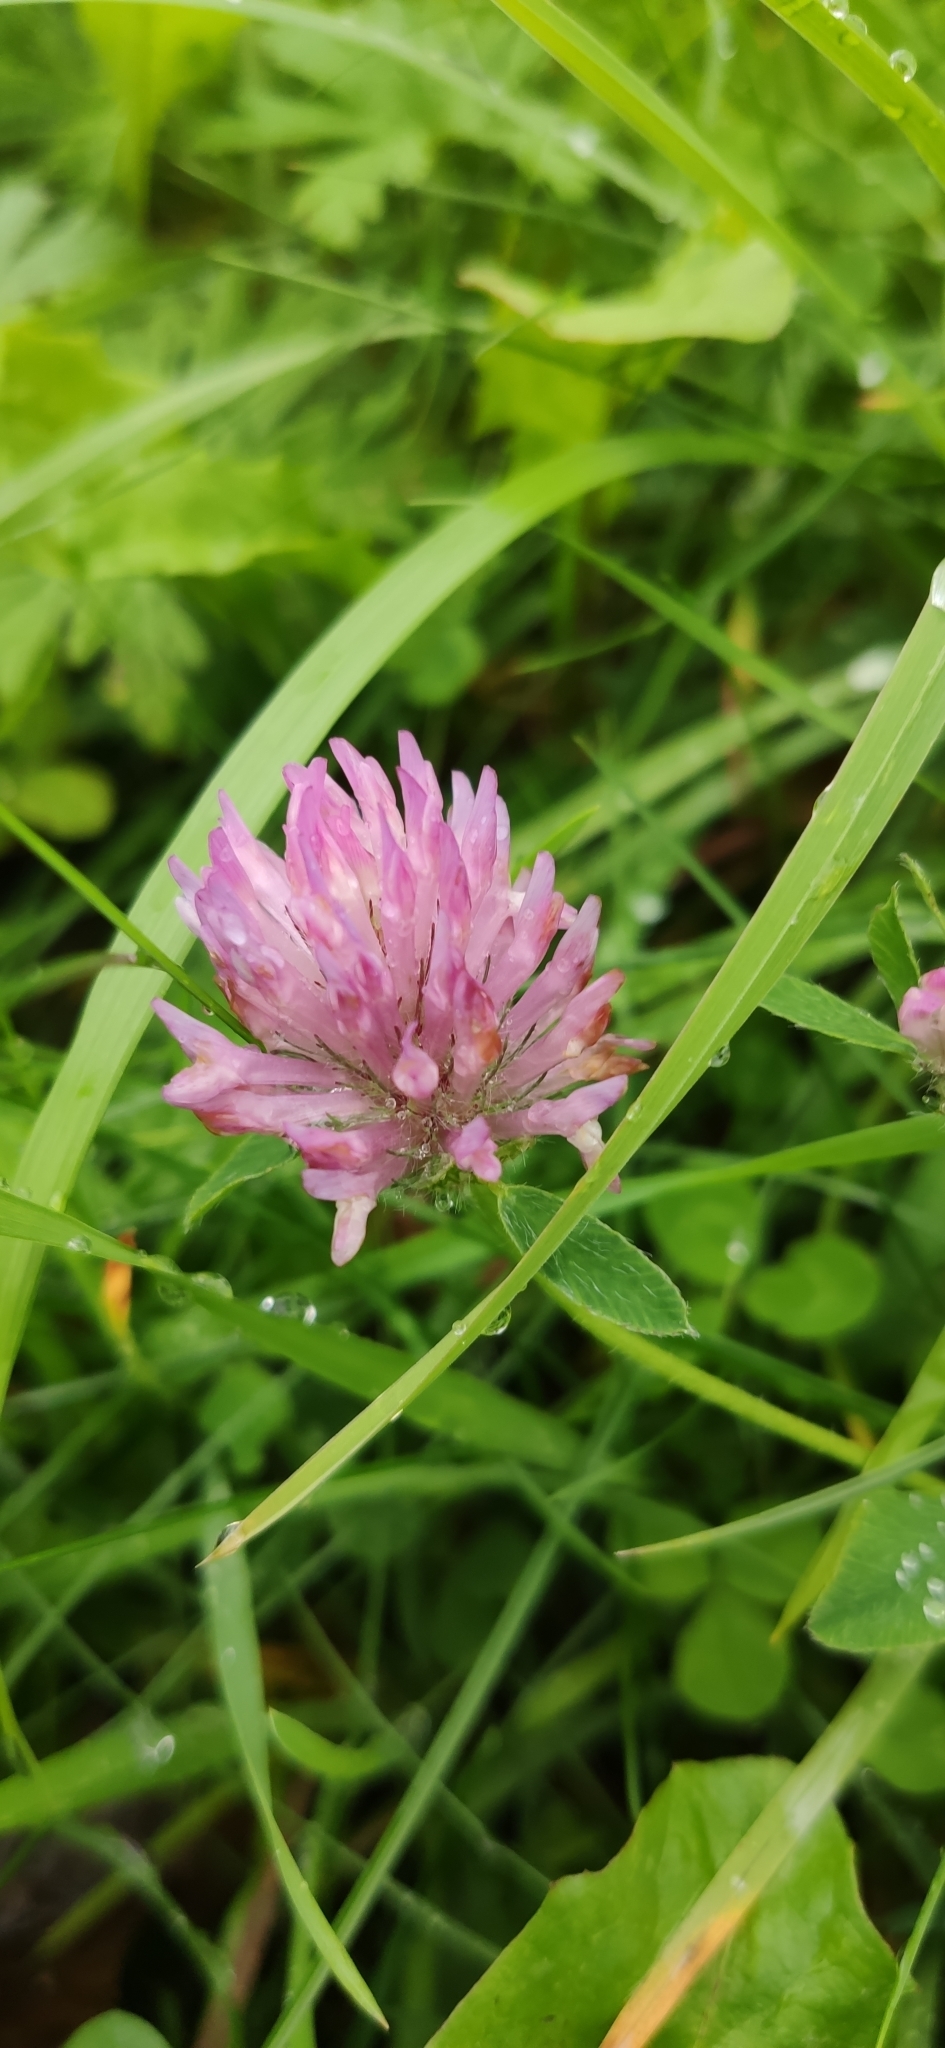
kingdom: Plantae
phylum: Tracheophyta
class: Magnoliopsida
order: Fabales
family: Fabaceae
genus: Trifolium
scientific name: Trifolium pratense
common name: Red clover
